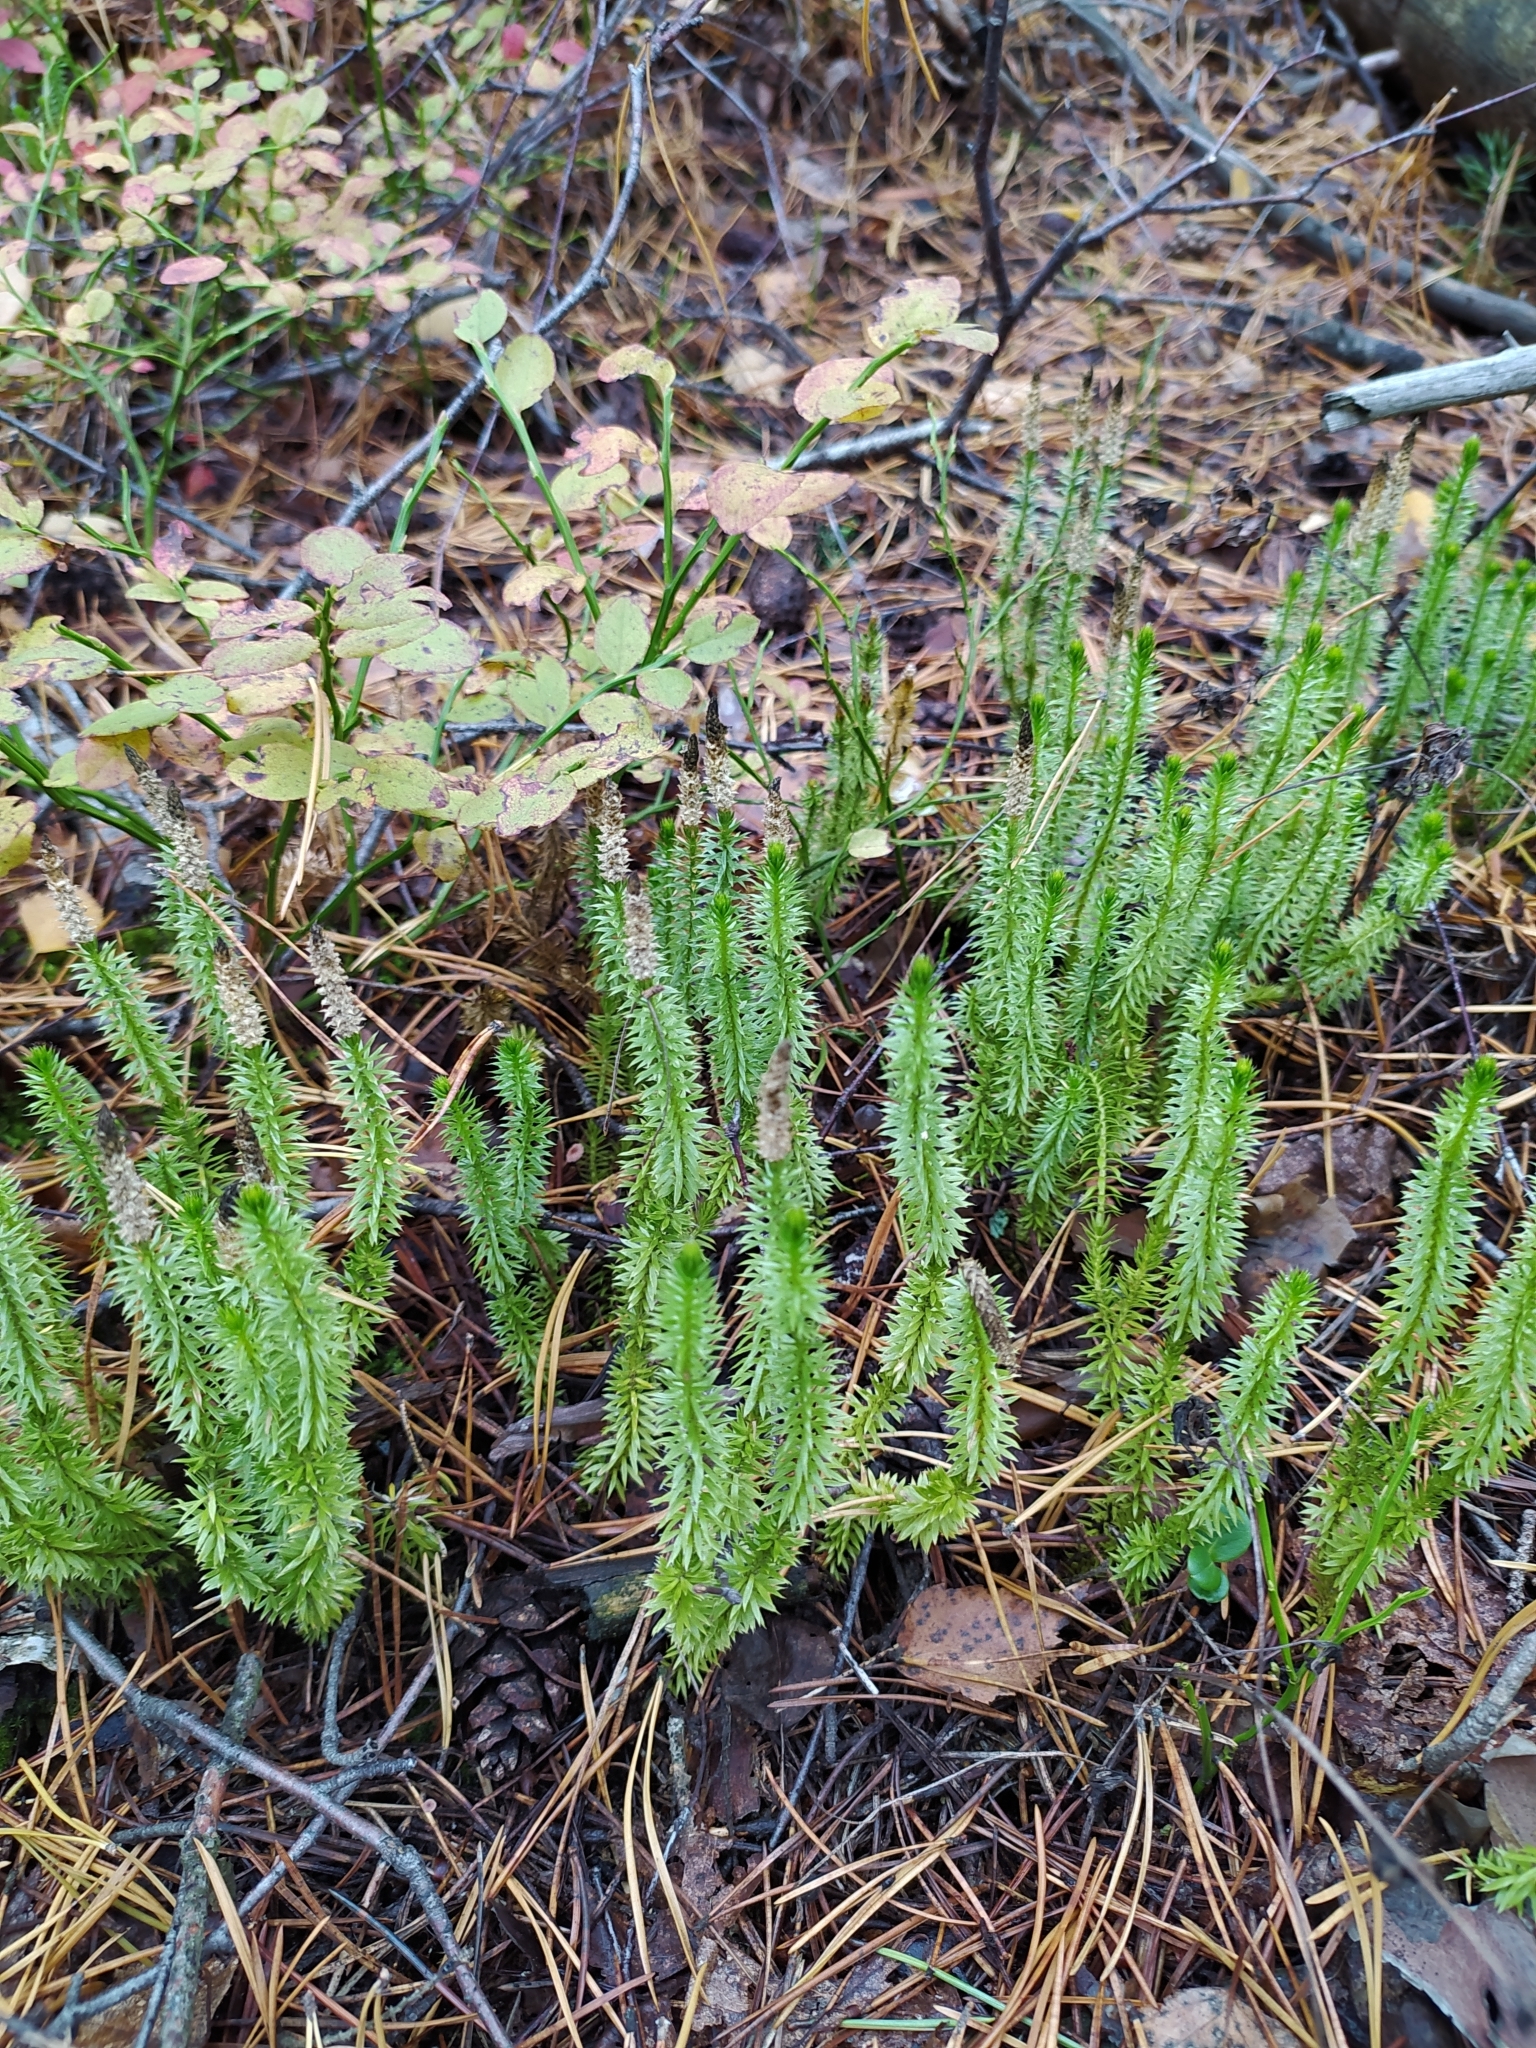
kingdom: Plantae
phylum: Tracheophyta
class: Lycopodiopsida
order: Lycopodiales
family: Lycopodiaceae
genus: Spinulum
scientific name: Spinulum annotinum
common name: Interrupted club-moss
